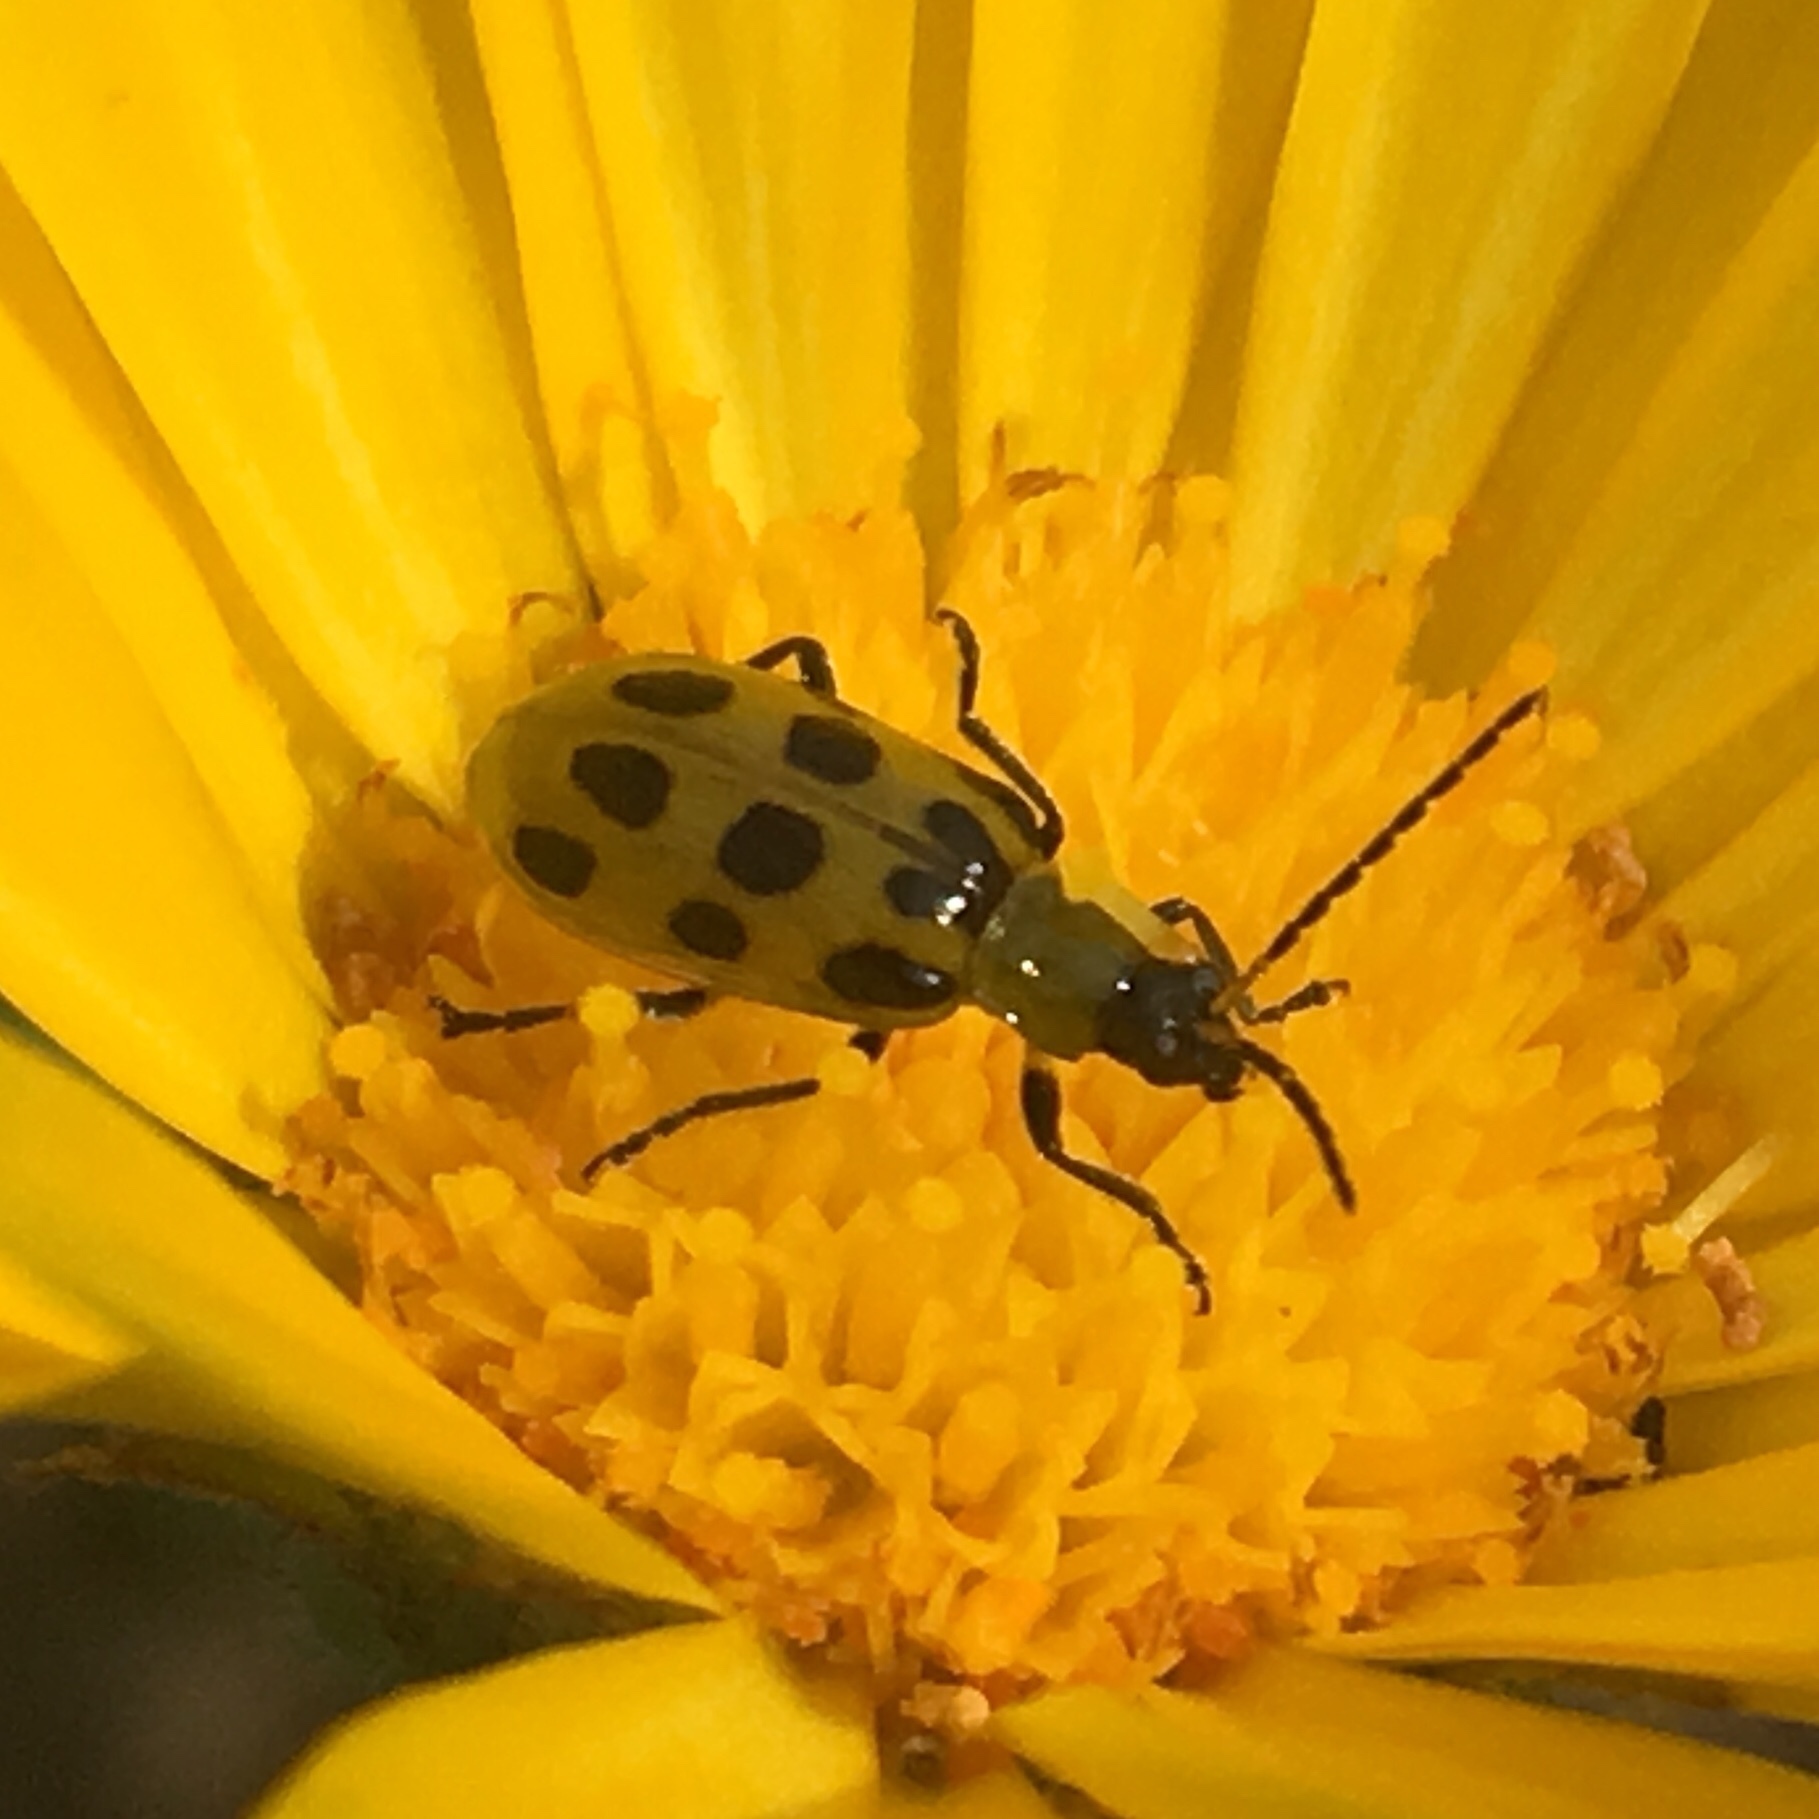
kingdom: Animalia
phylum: Arthropoda
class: Insecta
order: Coleoptera
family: Chrysomelidae
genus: Diabrotica
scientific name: Diabrotica undecimpunctata
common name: Spotted cucumber beetle
